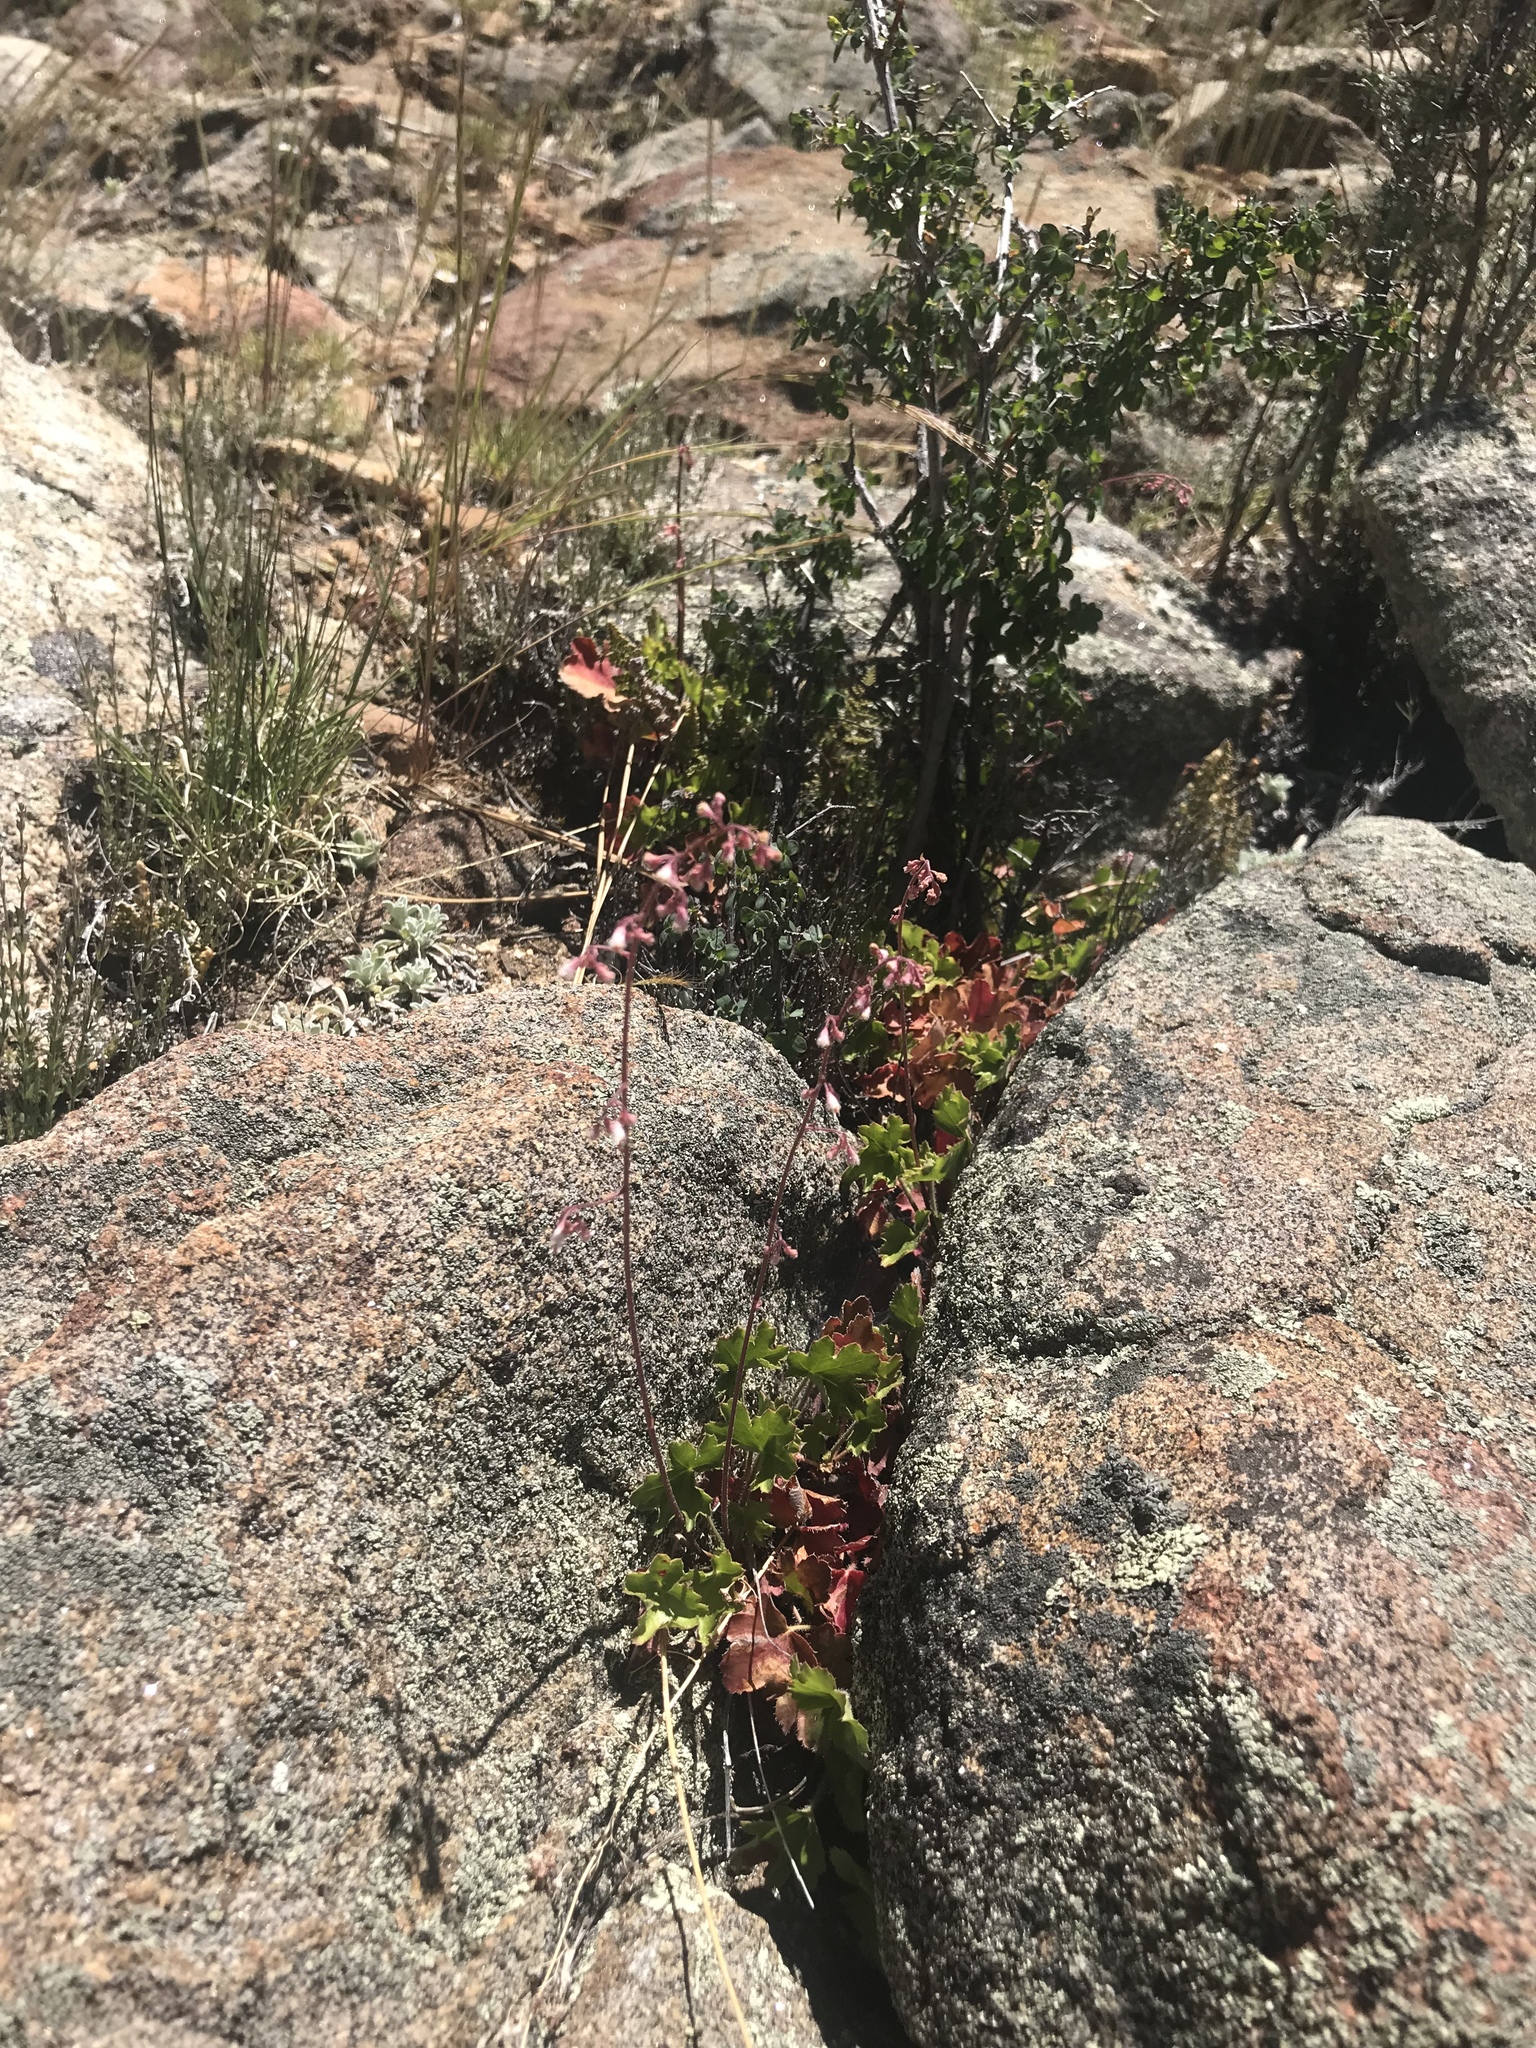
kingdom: Plantae
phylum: Tracheophyta
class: Magnoliopsida
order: Saxifragales
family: Saxifragaceae
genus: Heuchera
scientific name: Heuchera rubescens
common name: Jack-o'the-rocks
